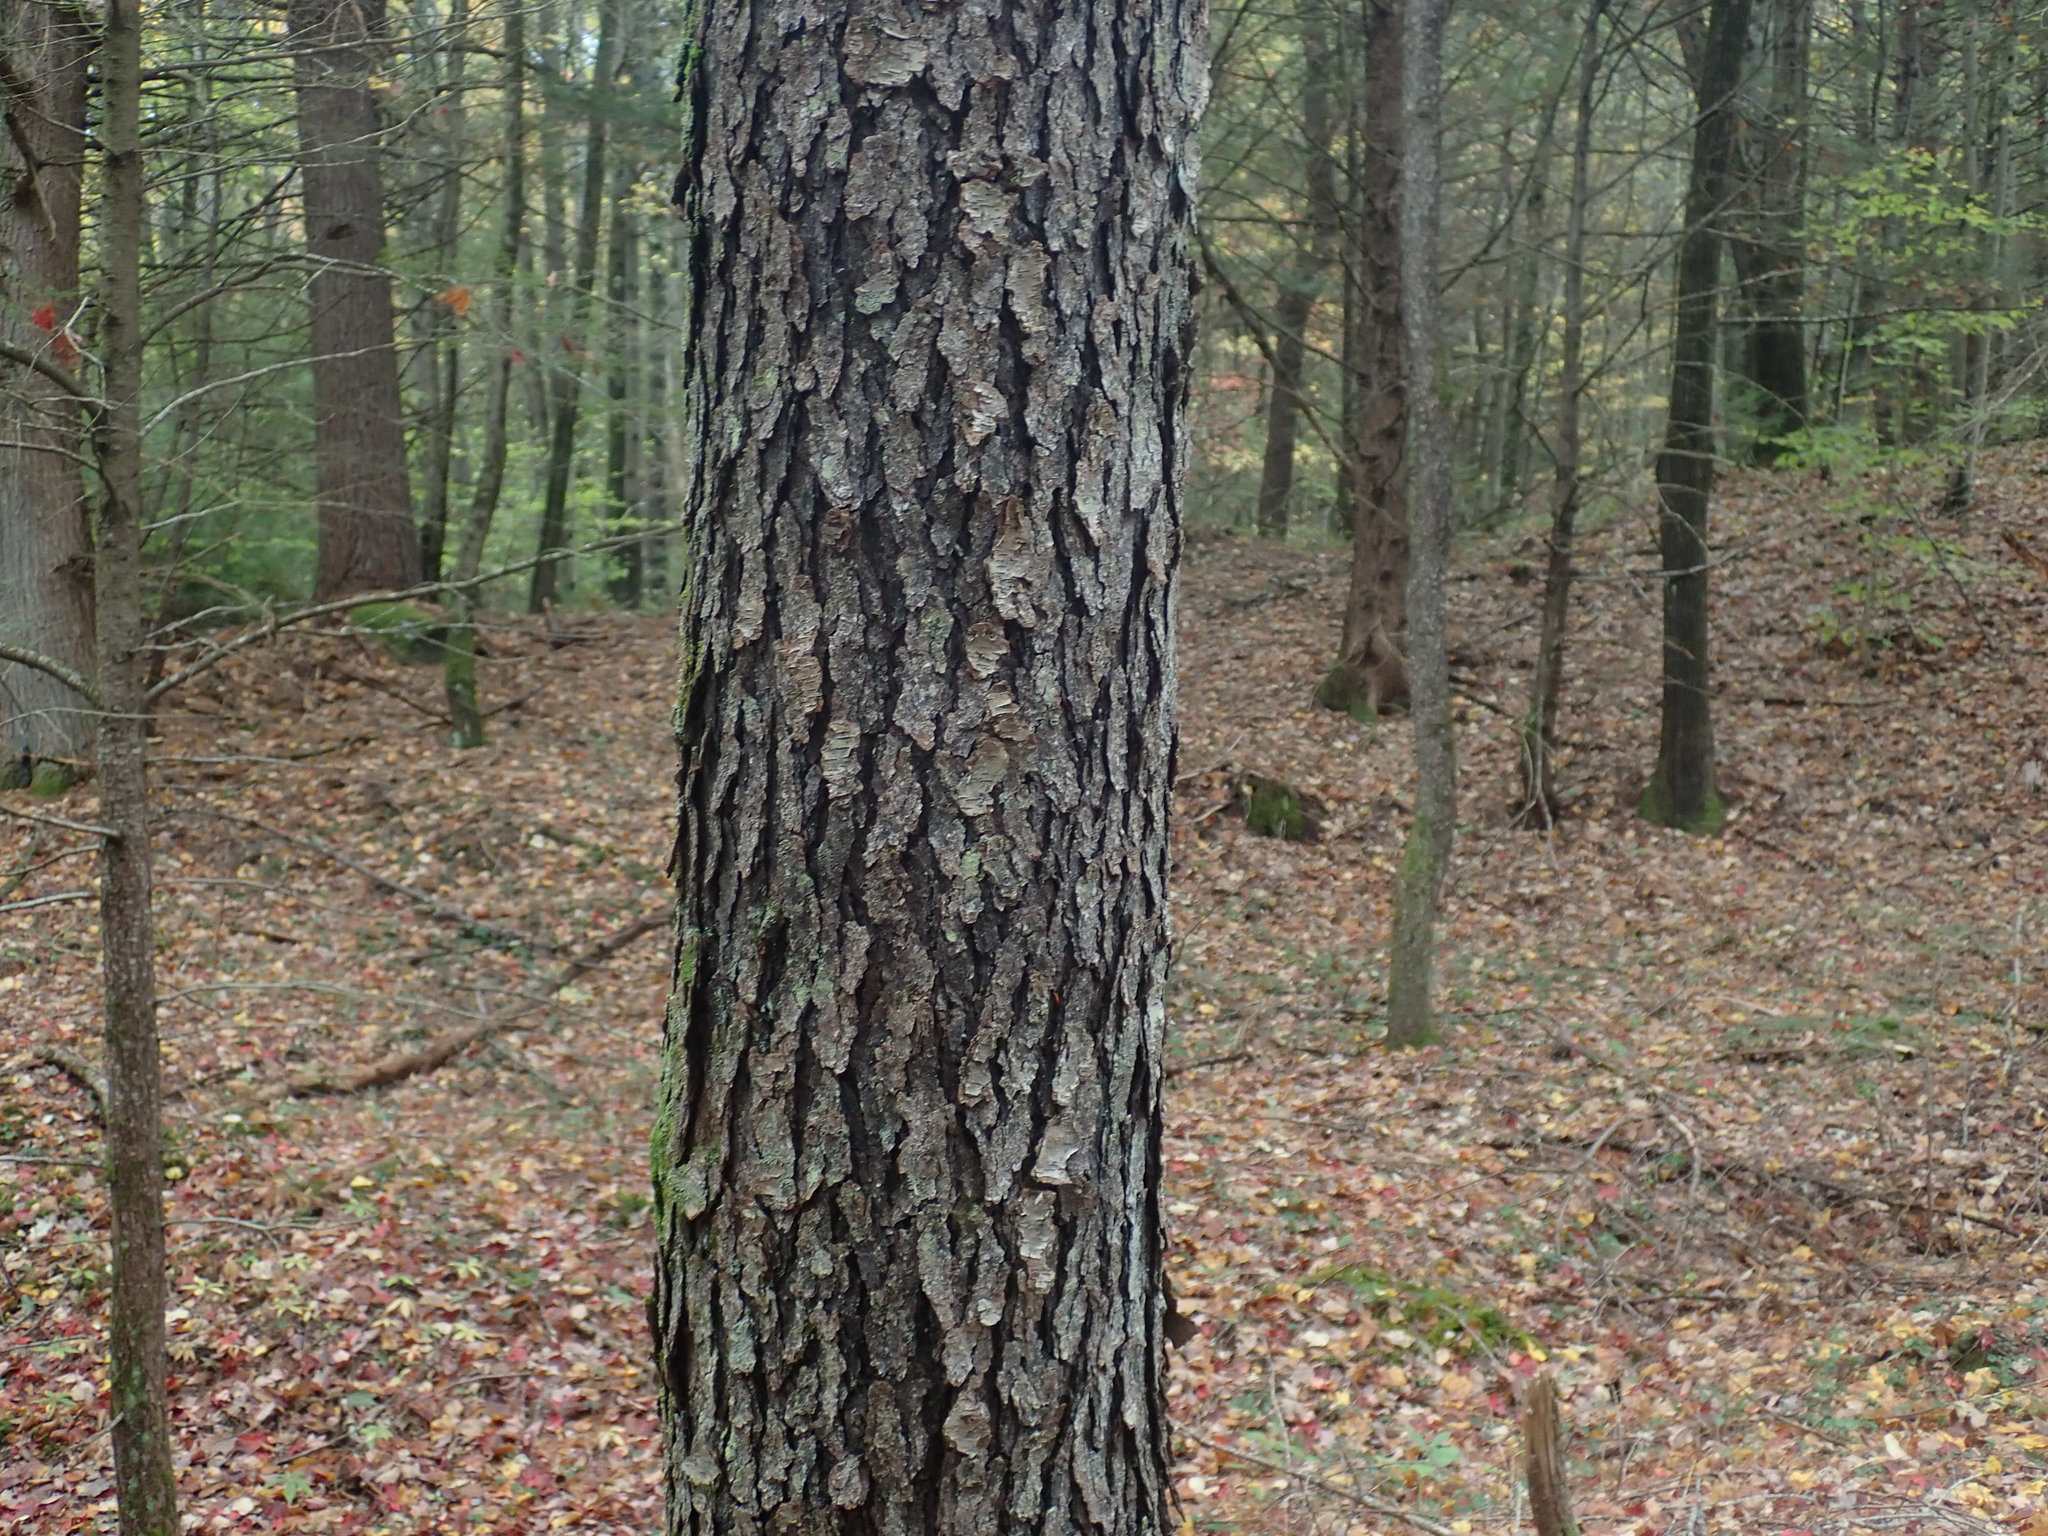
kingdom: Plantae
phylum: Tracheophyta
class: Magnoliopsida
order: Rosales
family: Rosaceae
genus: Prunus
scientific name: Prunus serotina
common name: Black cherry
